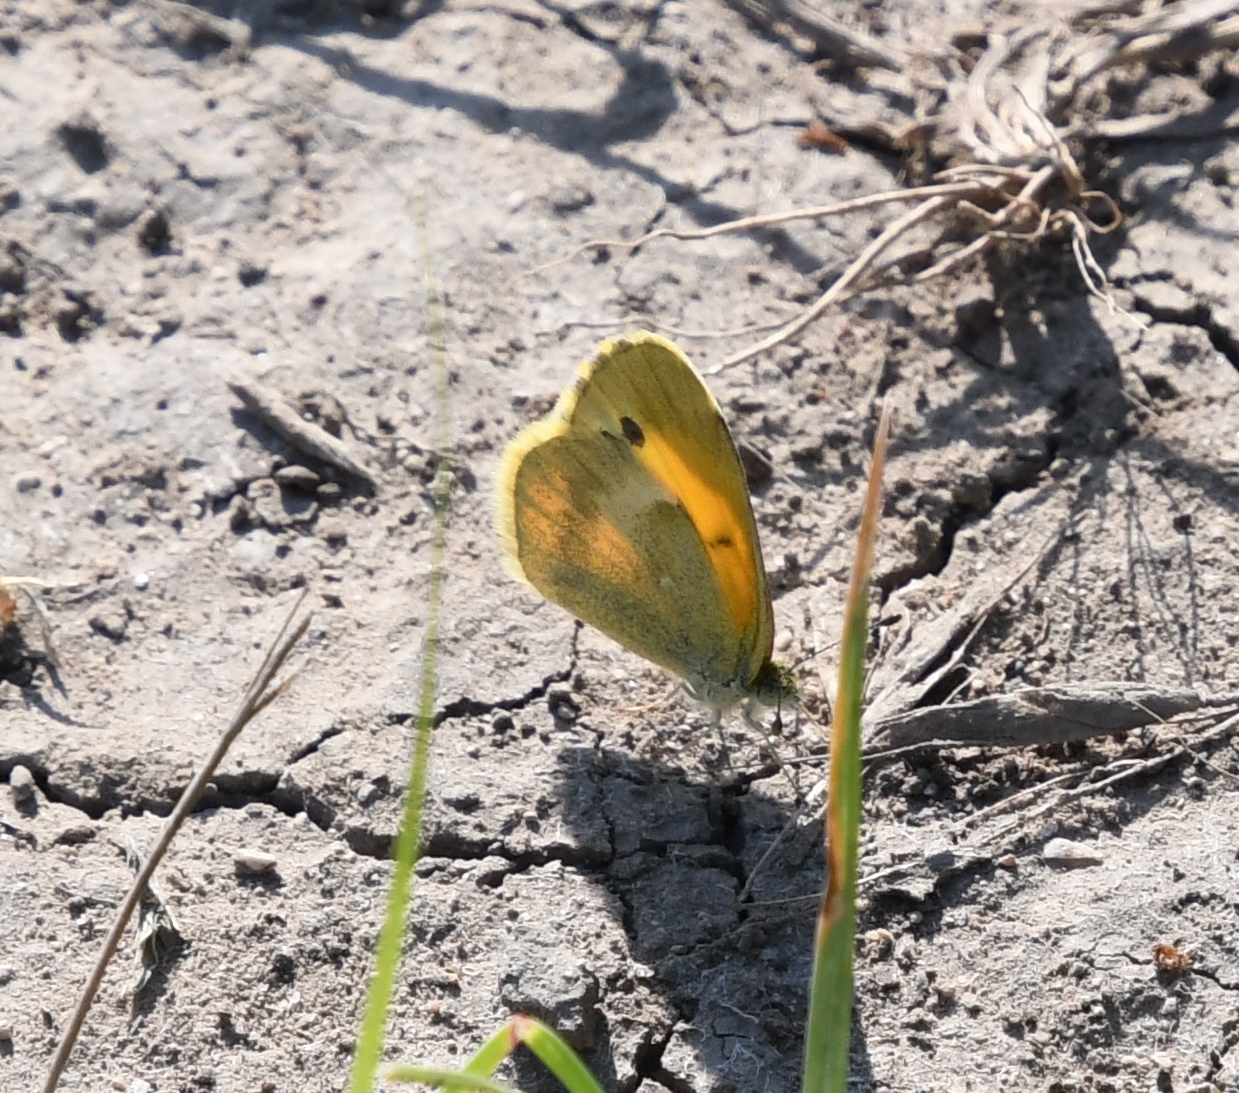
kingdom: Animalia
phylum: Arthropoda
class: Insecta
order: Lepidoptera
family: Pieridae
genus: Nathalis
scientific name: Nathalis iole
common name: Dainty sulphur
